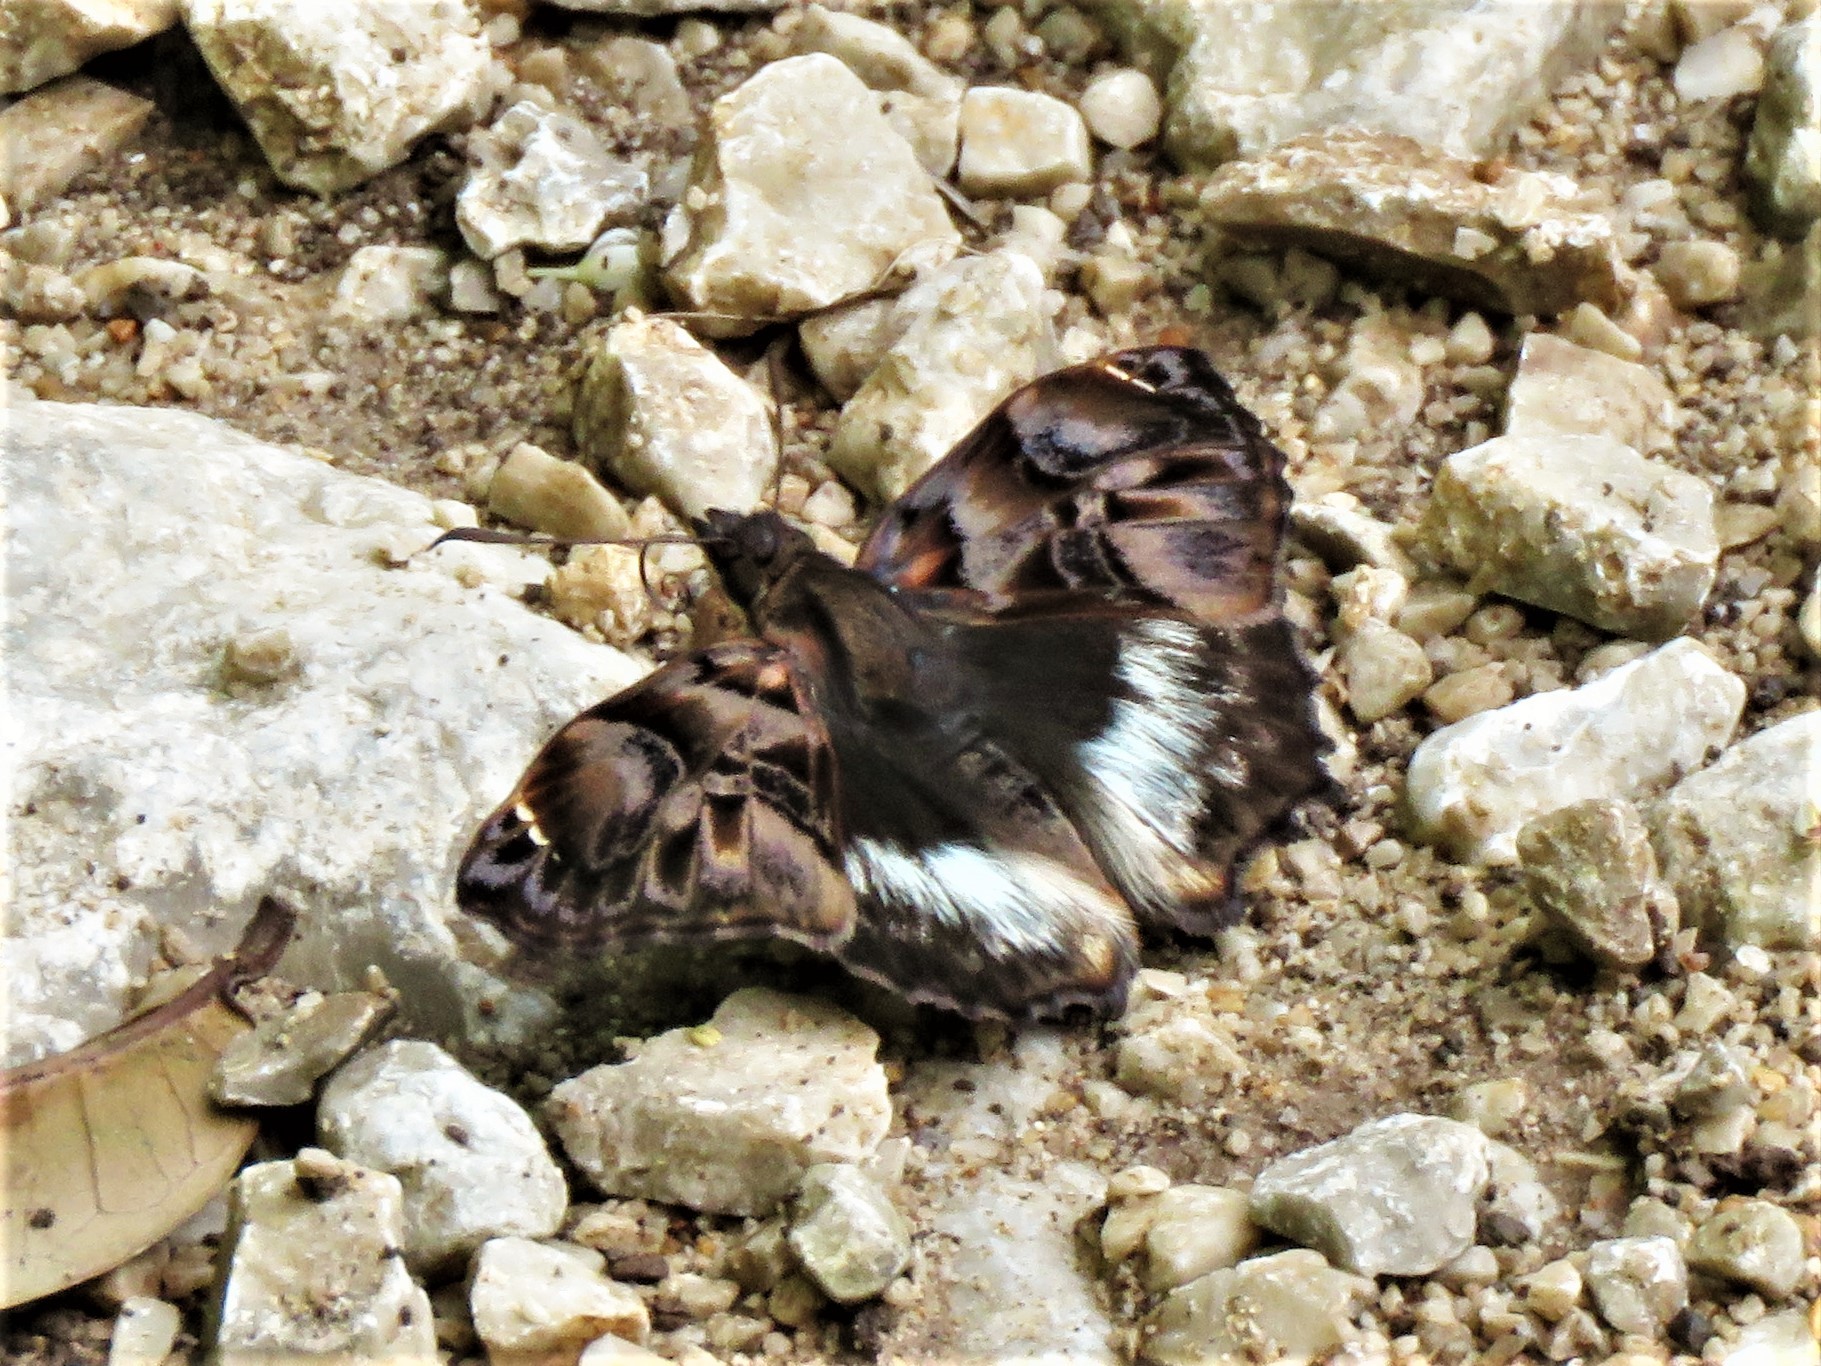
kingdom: Animalia
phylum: Arthropoda
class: Insecta
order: Lepidoptera
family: Hesperiidae
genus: Noctuana
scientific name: Noctuana lactifera
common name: Cryptic skipper
